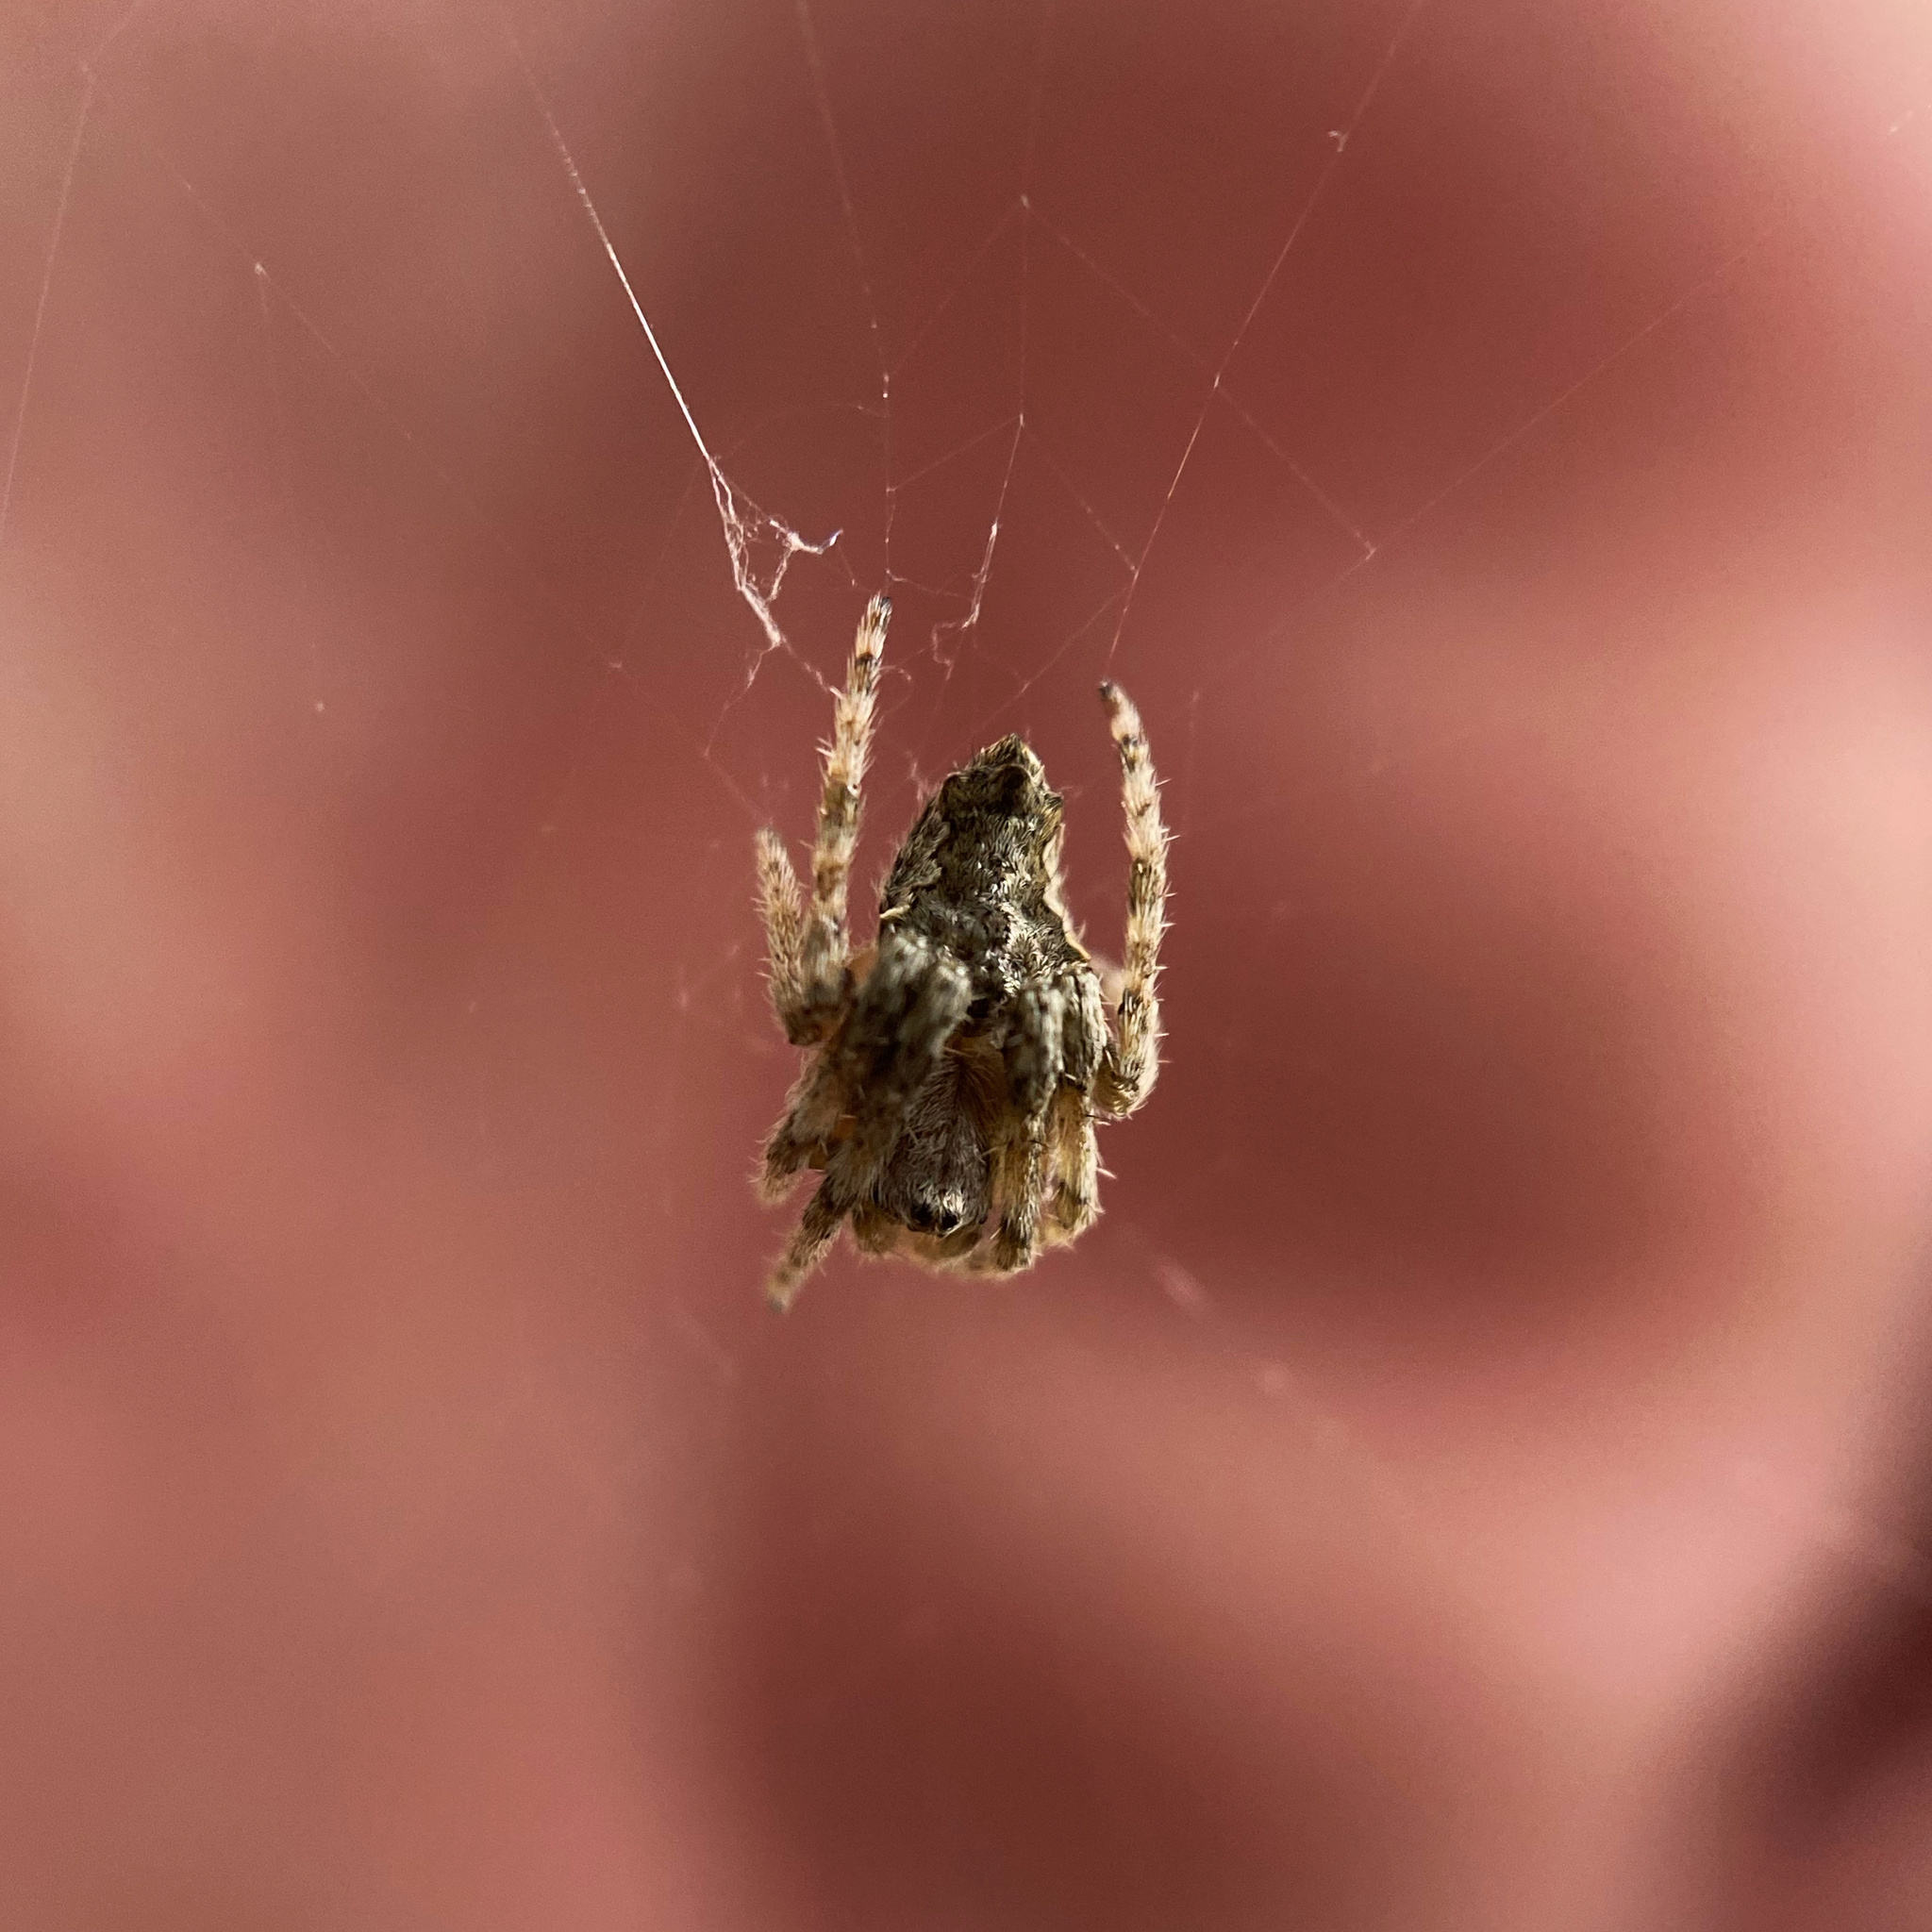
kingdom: Animalia
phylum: Arthropoda
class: Arachnida
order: Araneae
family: Araneidae
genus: Eriophora
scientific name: Eriophora pustulosa
